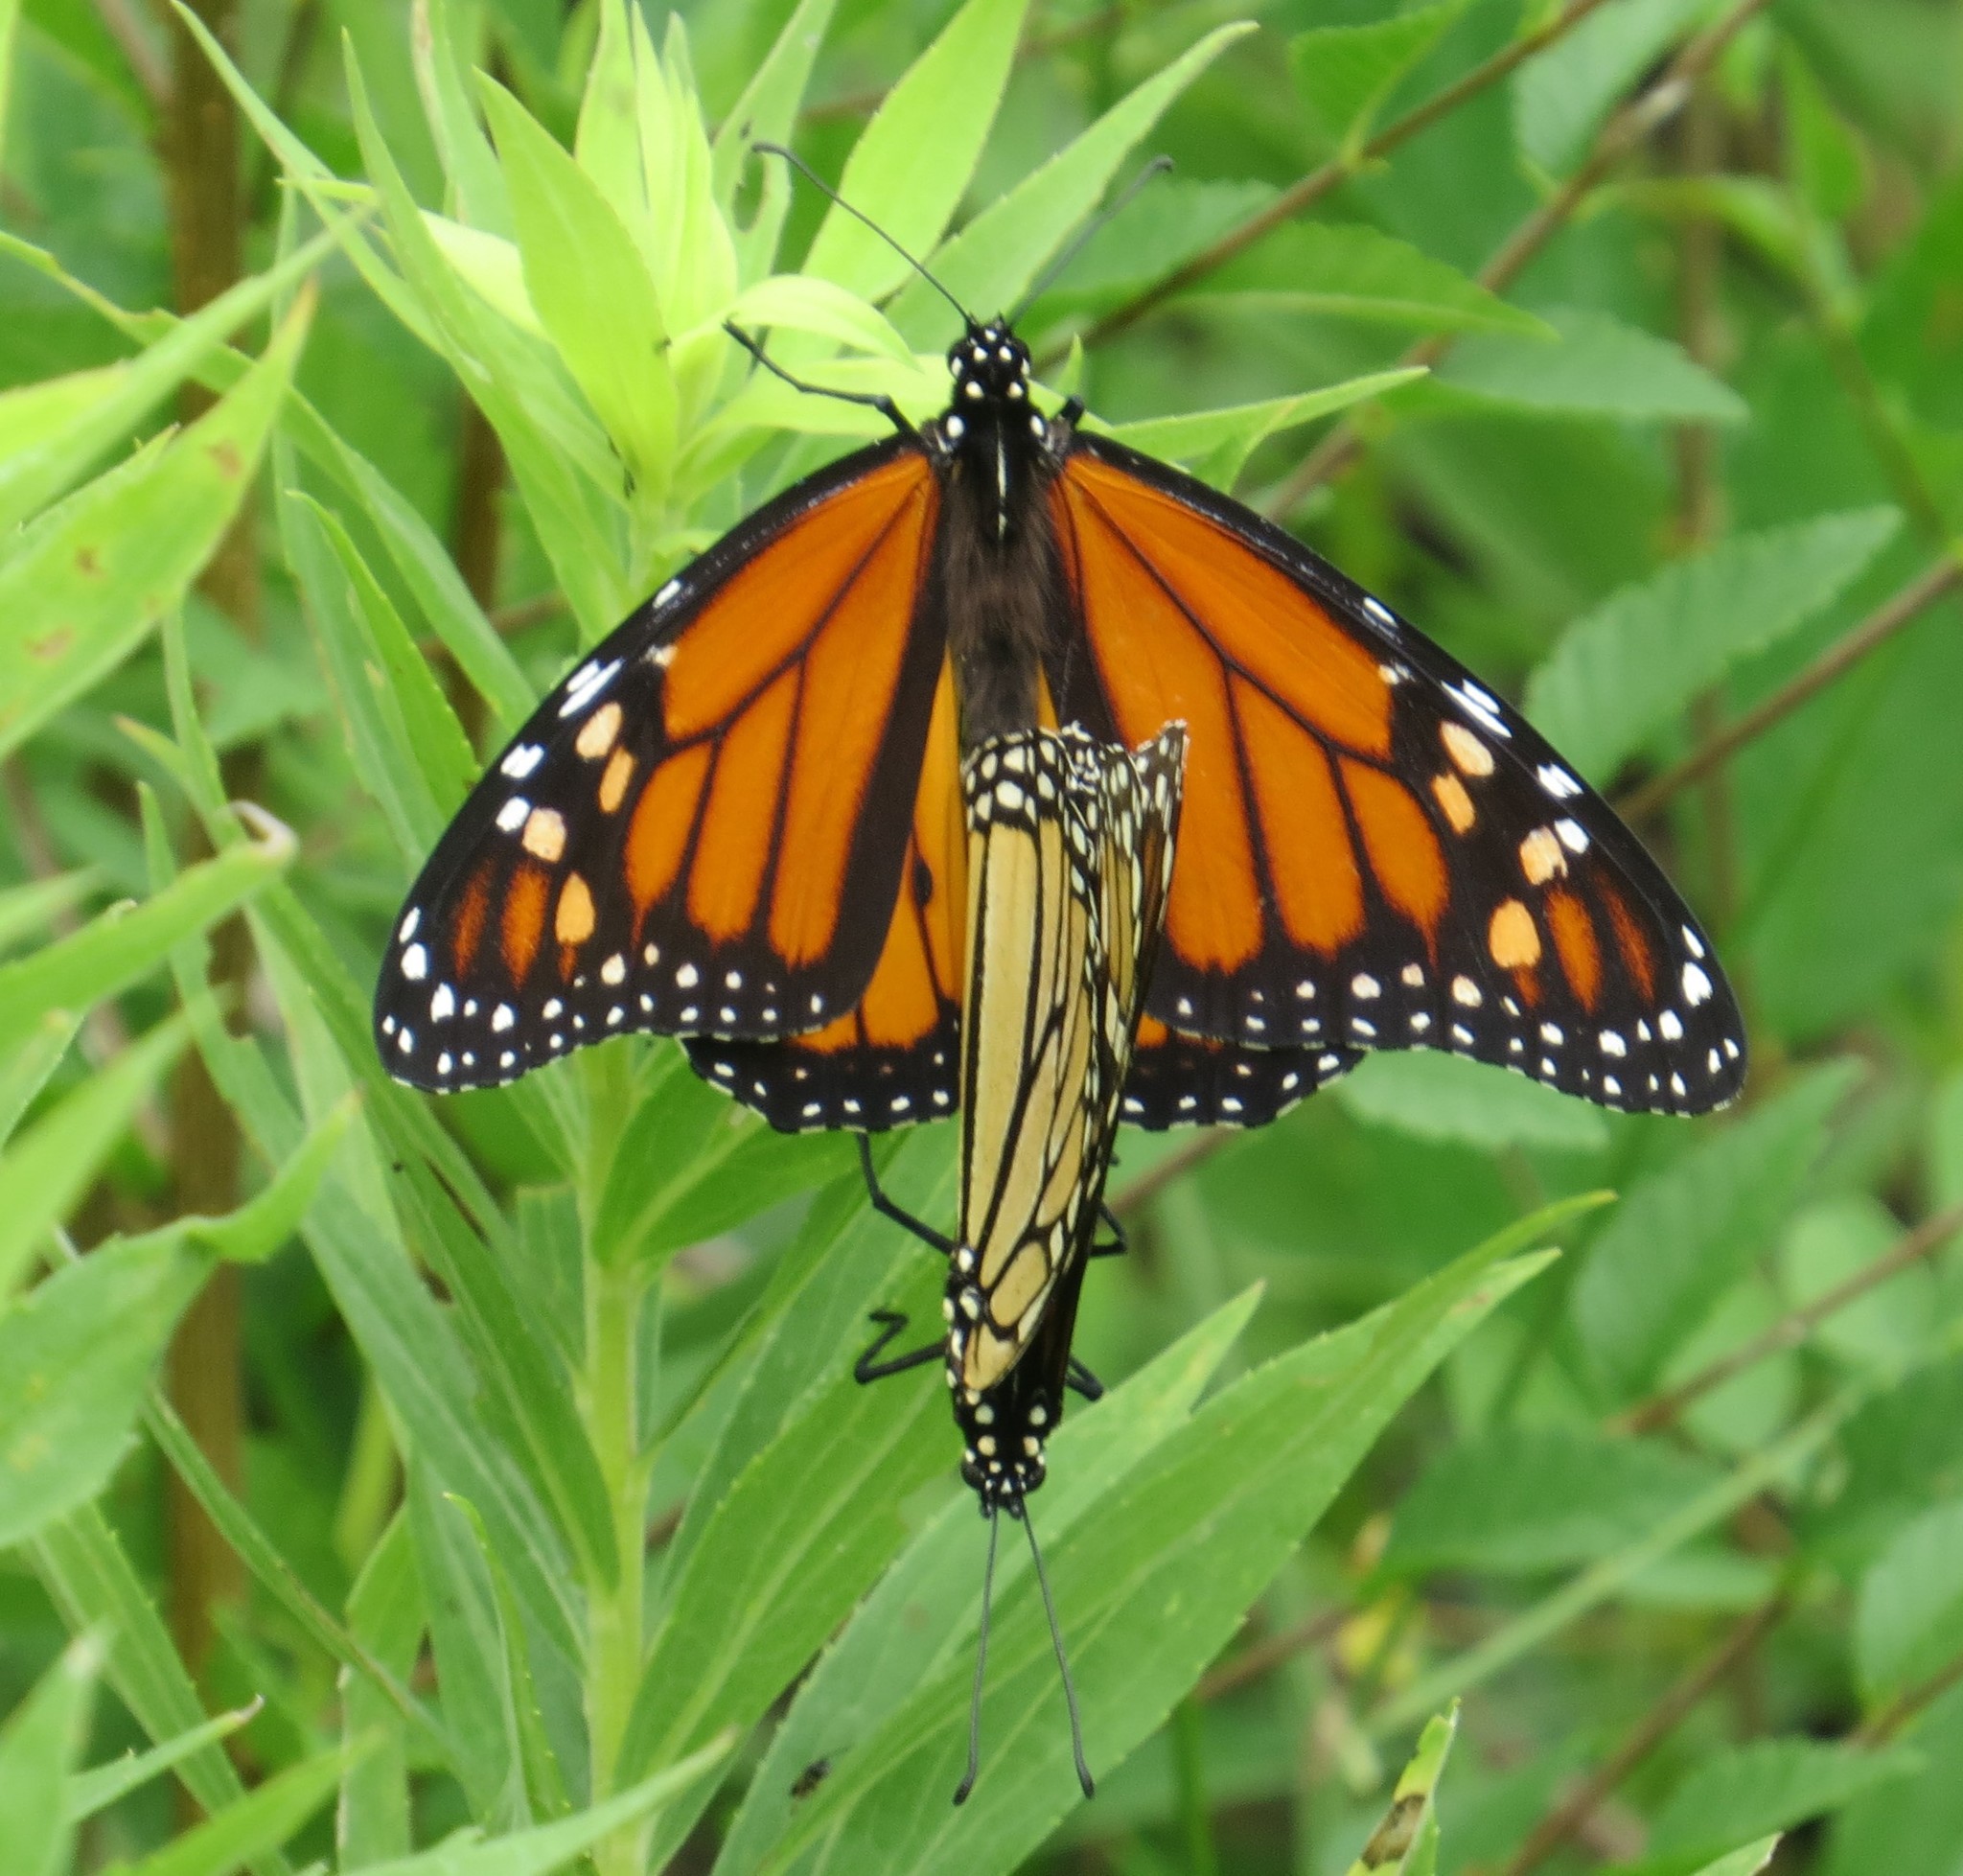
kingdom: Animalia
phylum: Arthropoda
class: Insecta
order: Lepidoptera
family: Nymphalidae
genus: Danaus
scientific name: Danaus plexippus
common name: Monarch
